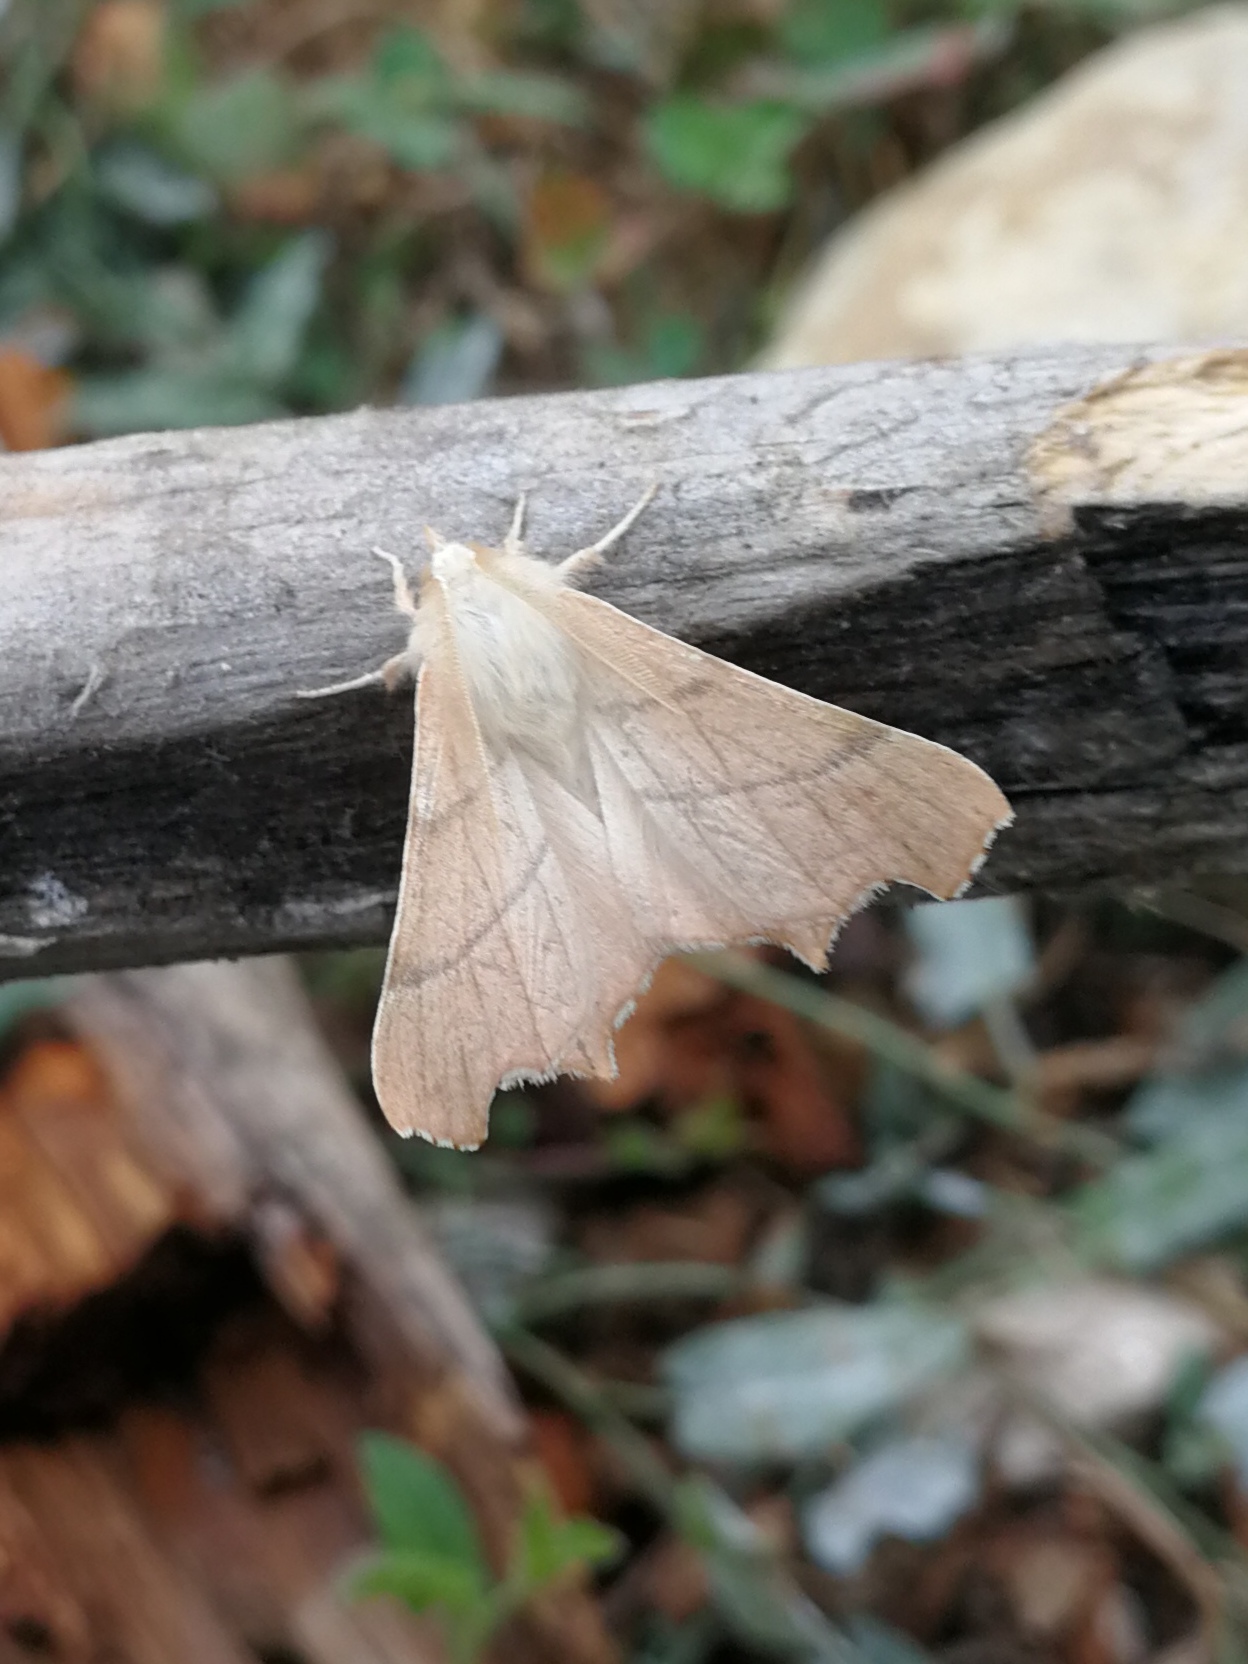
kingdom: Animalia
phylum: Arthropoda
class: Insecta
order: Lepidoptera
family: Geometridae
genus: Ennomos
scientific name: Ennomos quercaria
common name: Clouded august thorn
